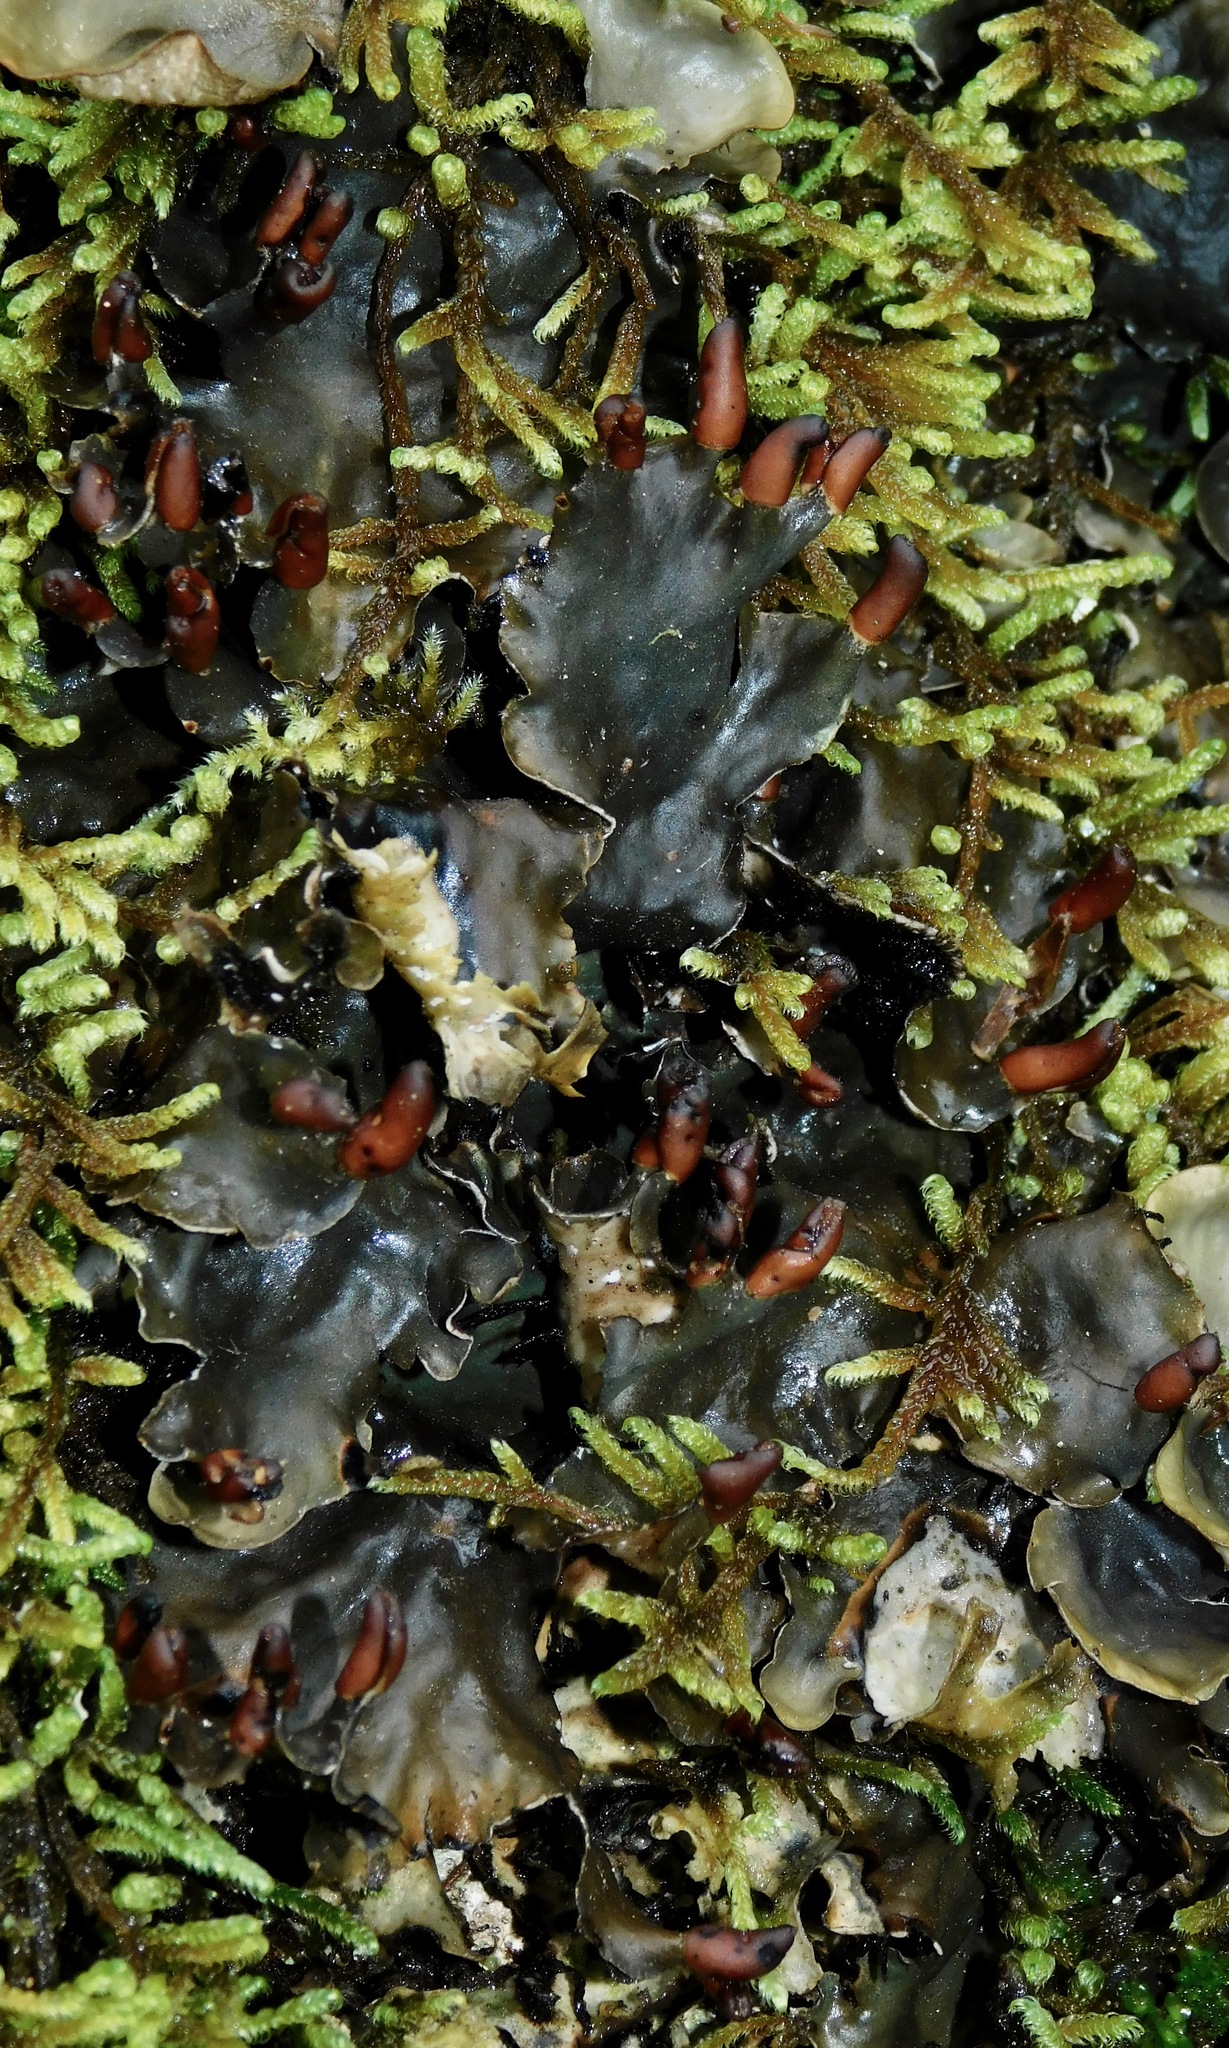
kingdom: Fungi
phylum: Ascomycota
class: Lecanoromycetes
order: Peltigerales
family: Peltigeraceae
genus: Peltigera
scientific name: Peltigera neopolydactyla
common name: Carpet pelt
